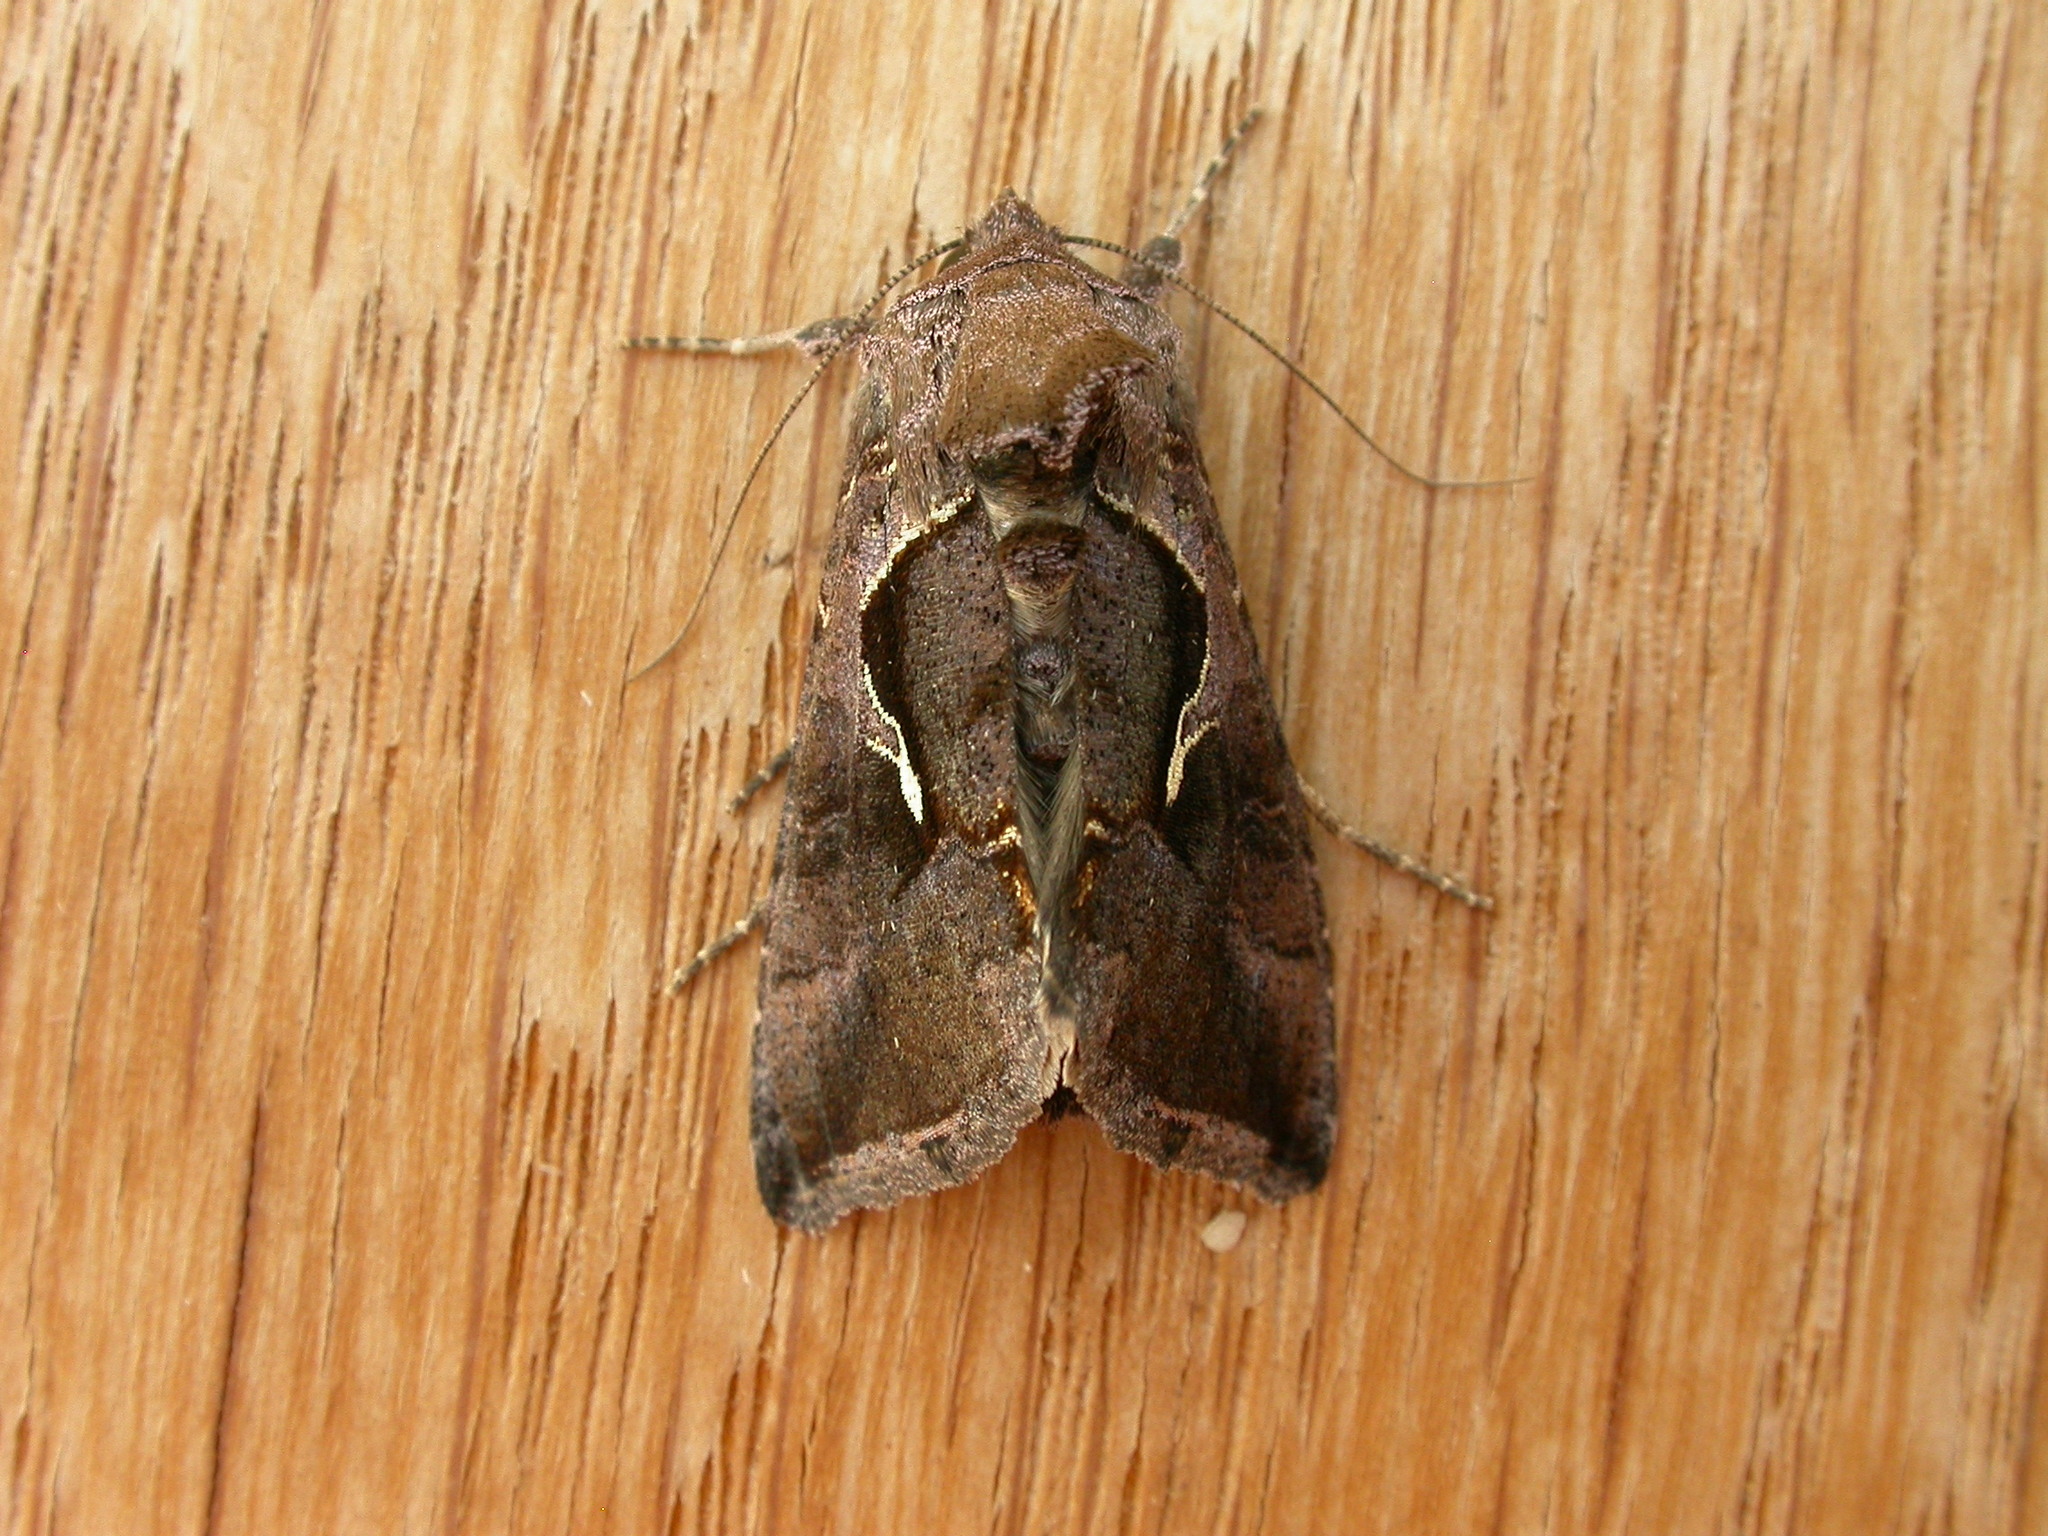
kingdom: Animalia
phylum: Arthropoda
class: Insecta
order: Lepidoptera
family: Noctuidae
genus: Chrysodeixis
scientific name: Chrysodeixis subsidens
